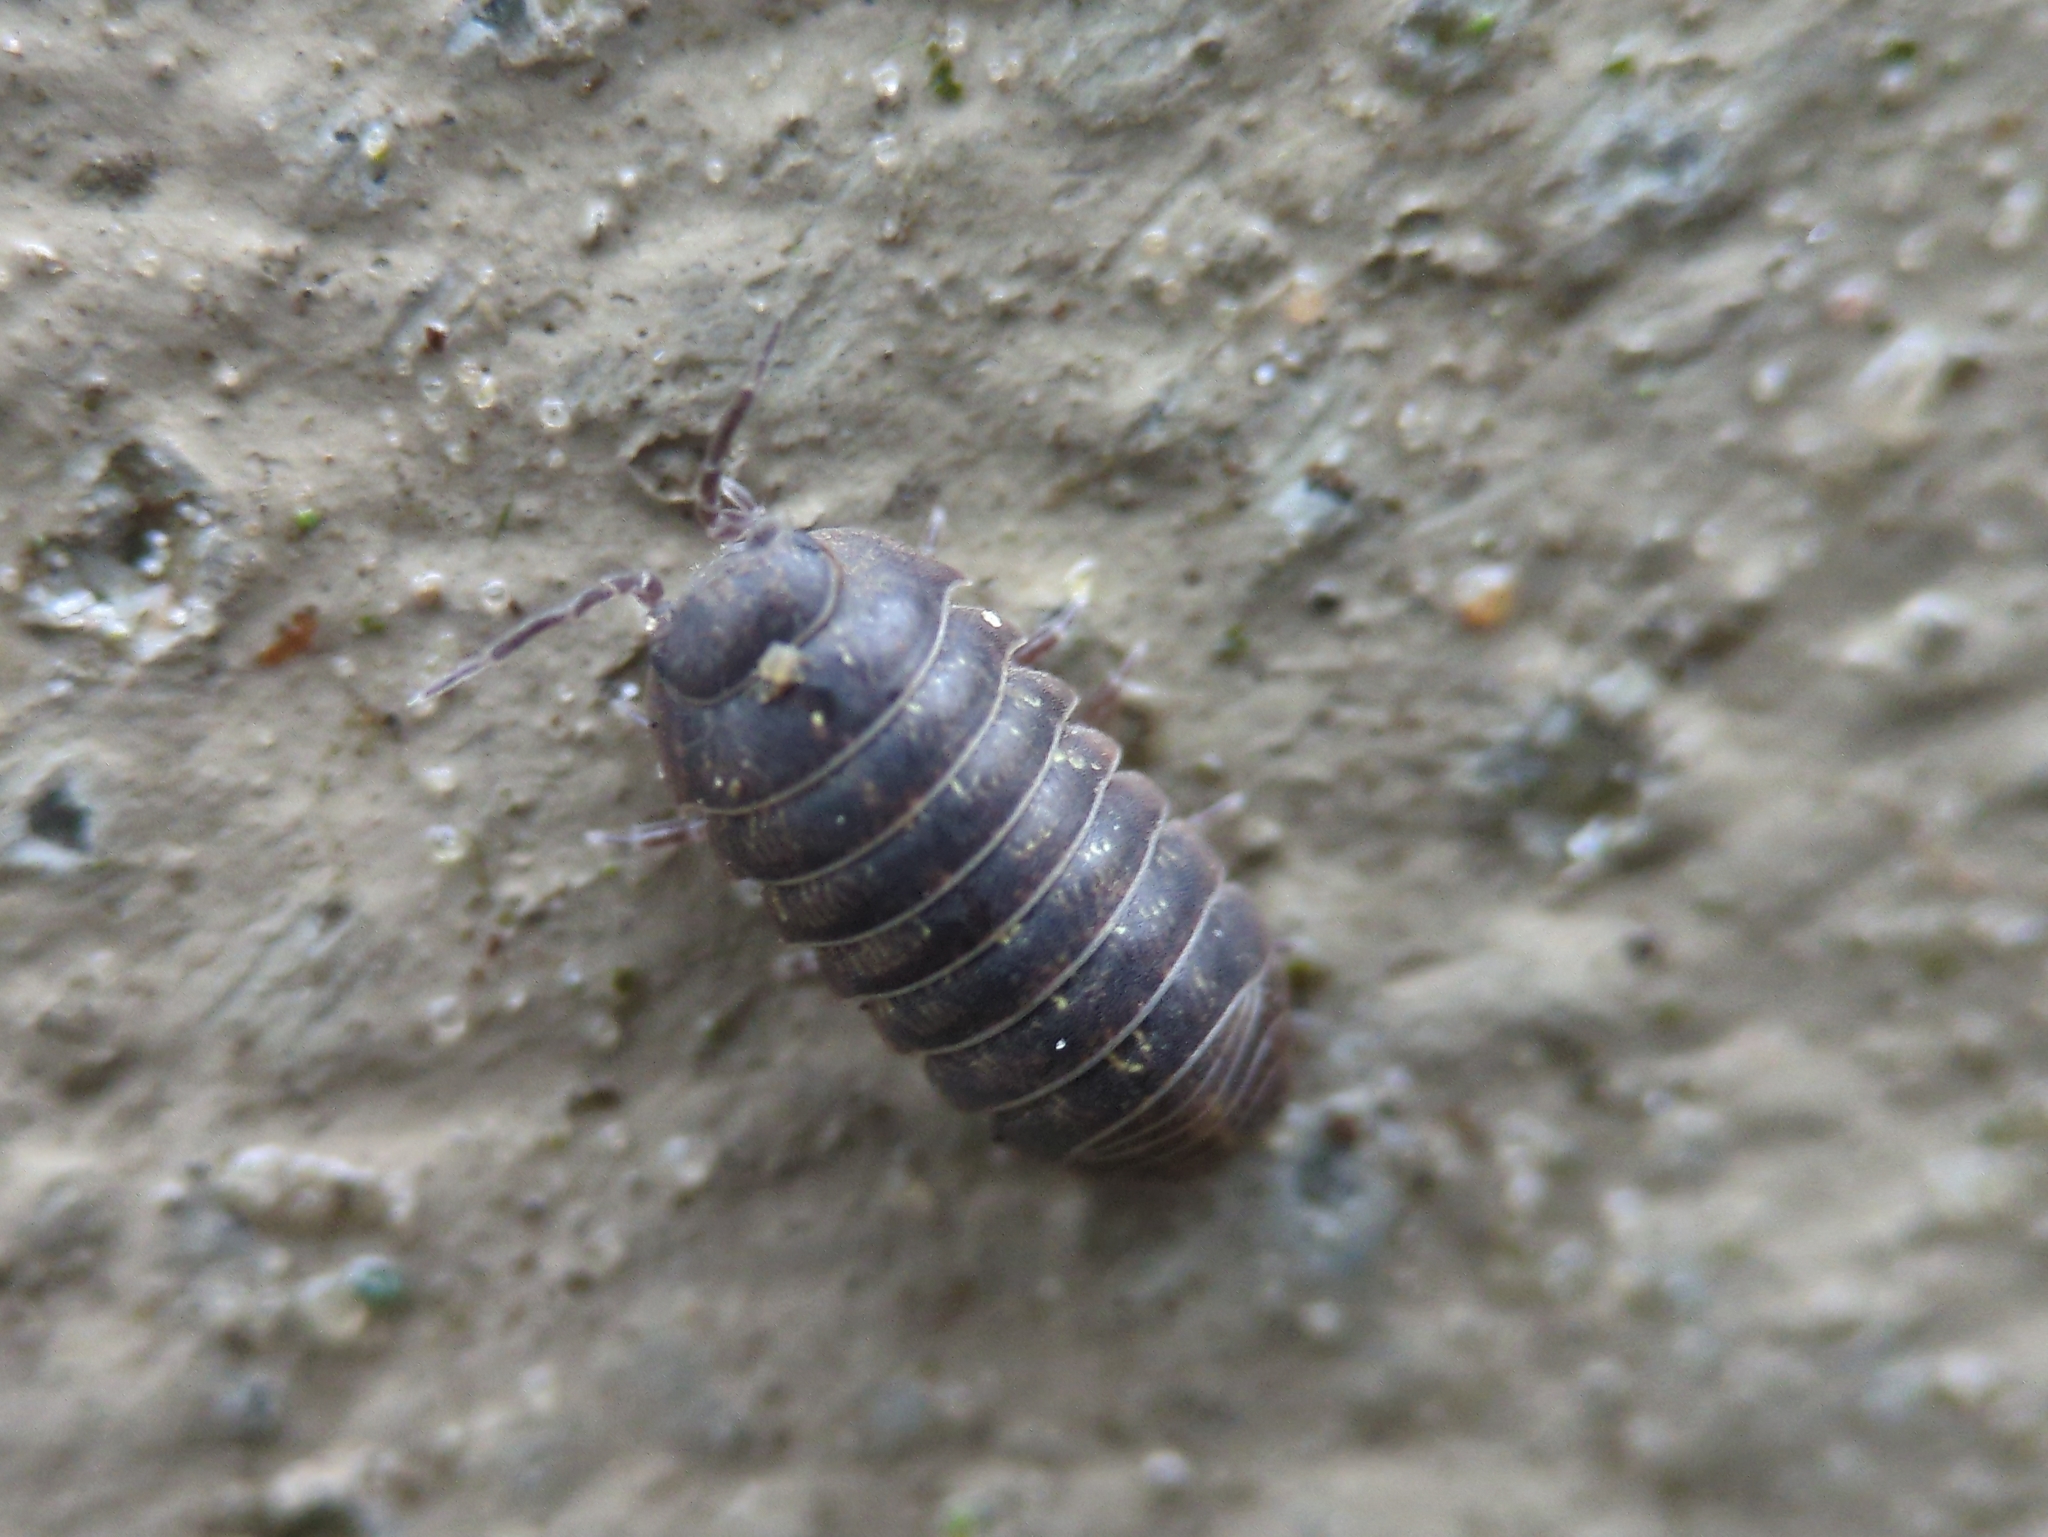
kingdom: Animalia
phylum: Arthropoda
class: Malacostraca
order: Isopoda
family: Armadillidiidae
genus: Armadillidium
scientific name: Armadillidium vulgare
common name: Common pill woodlouse
